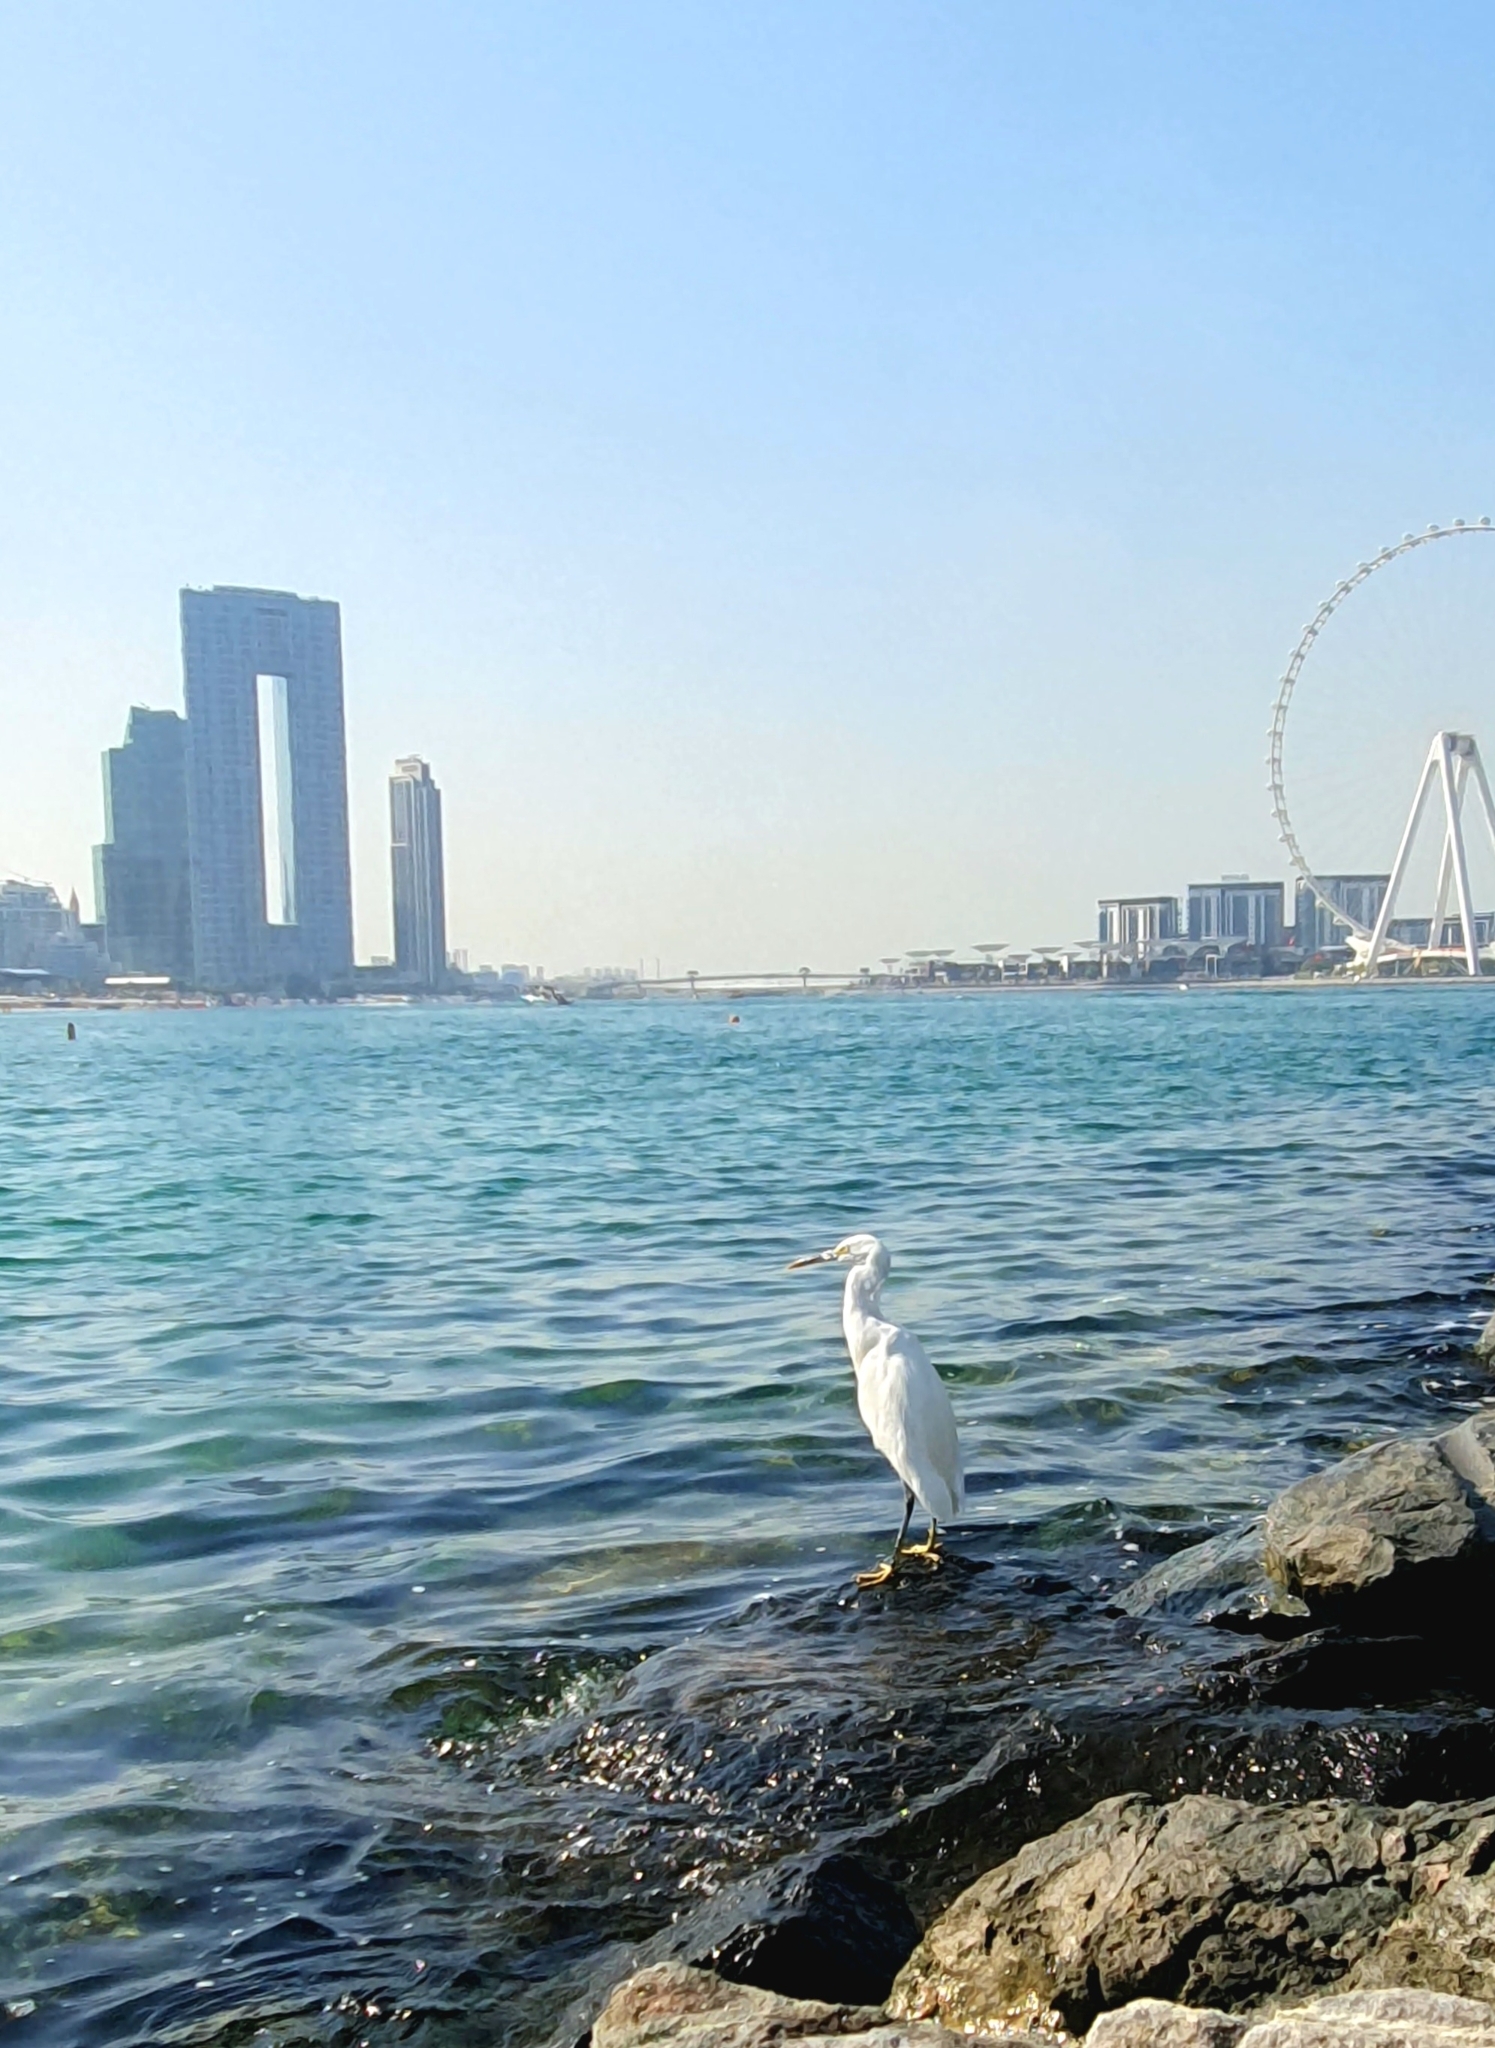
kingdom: Animalia
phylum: Chordata
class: Aves
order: Pelecaniformes
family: Ardeidae
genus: Egretta
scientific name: Egretta gularis
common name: Western reef-heron
